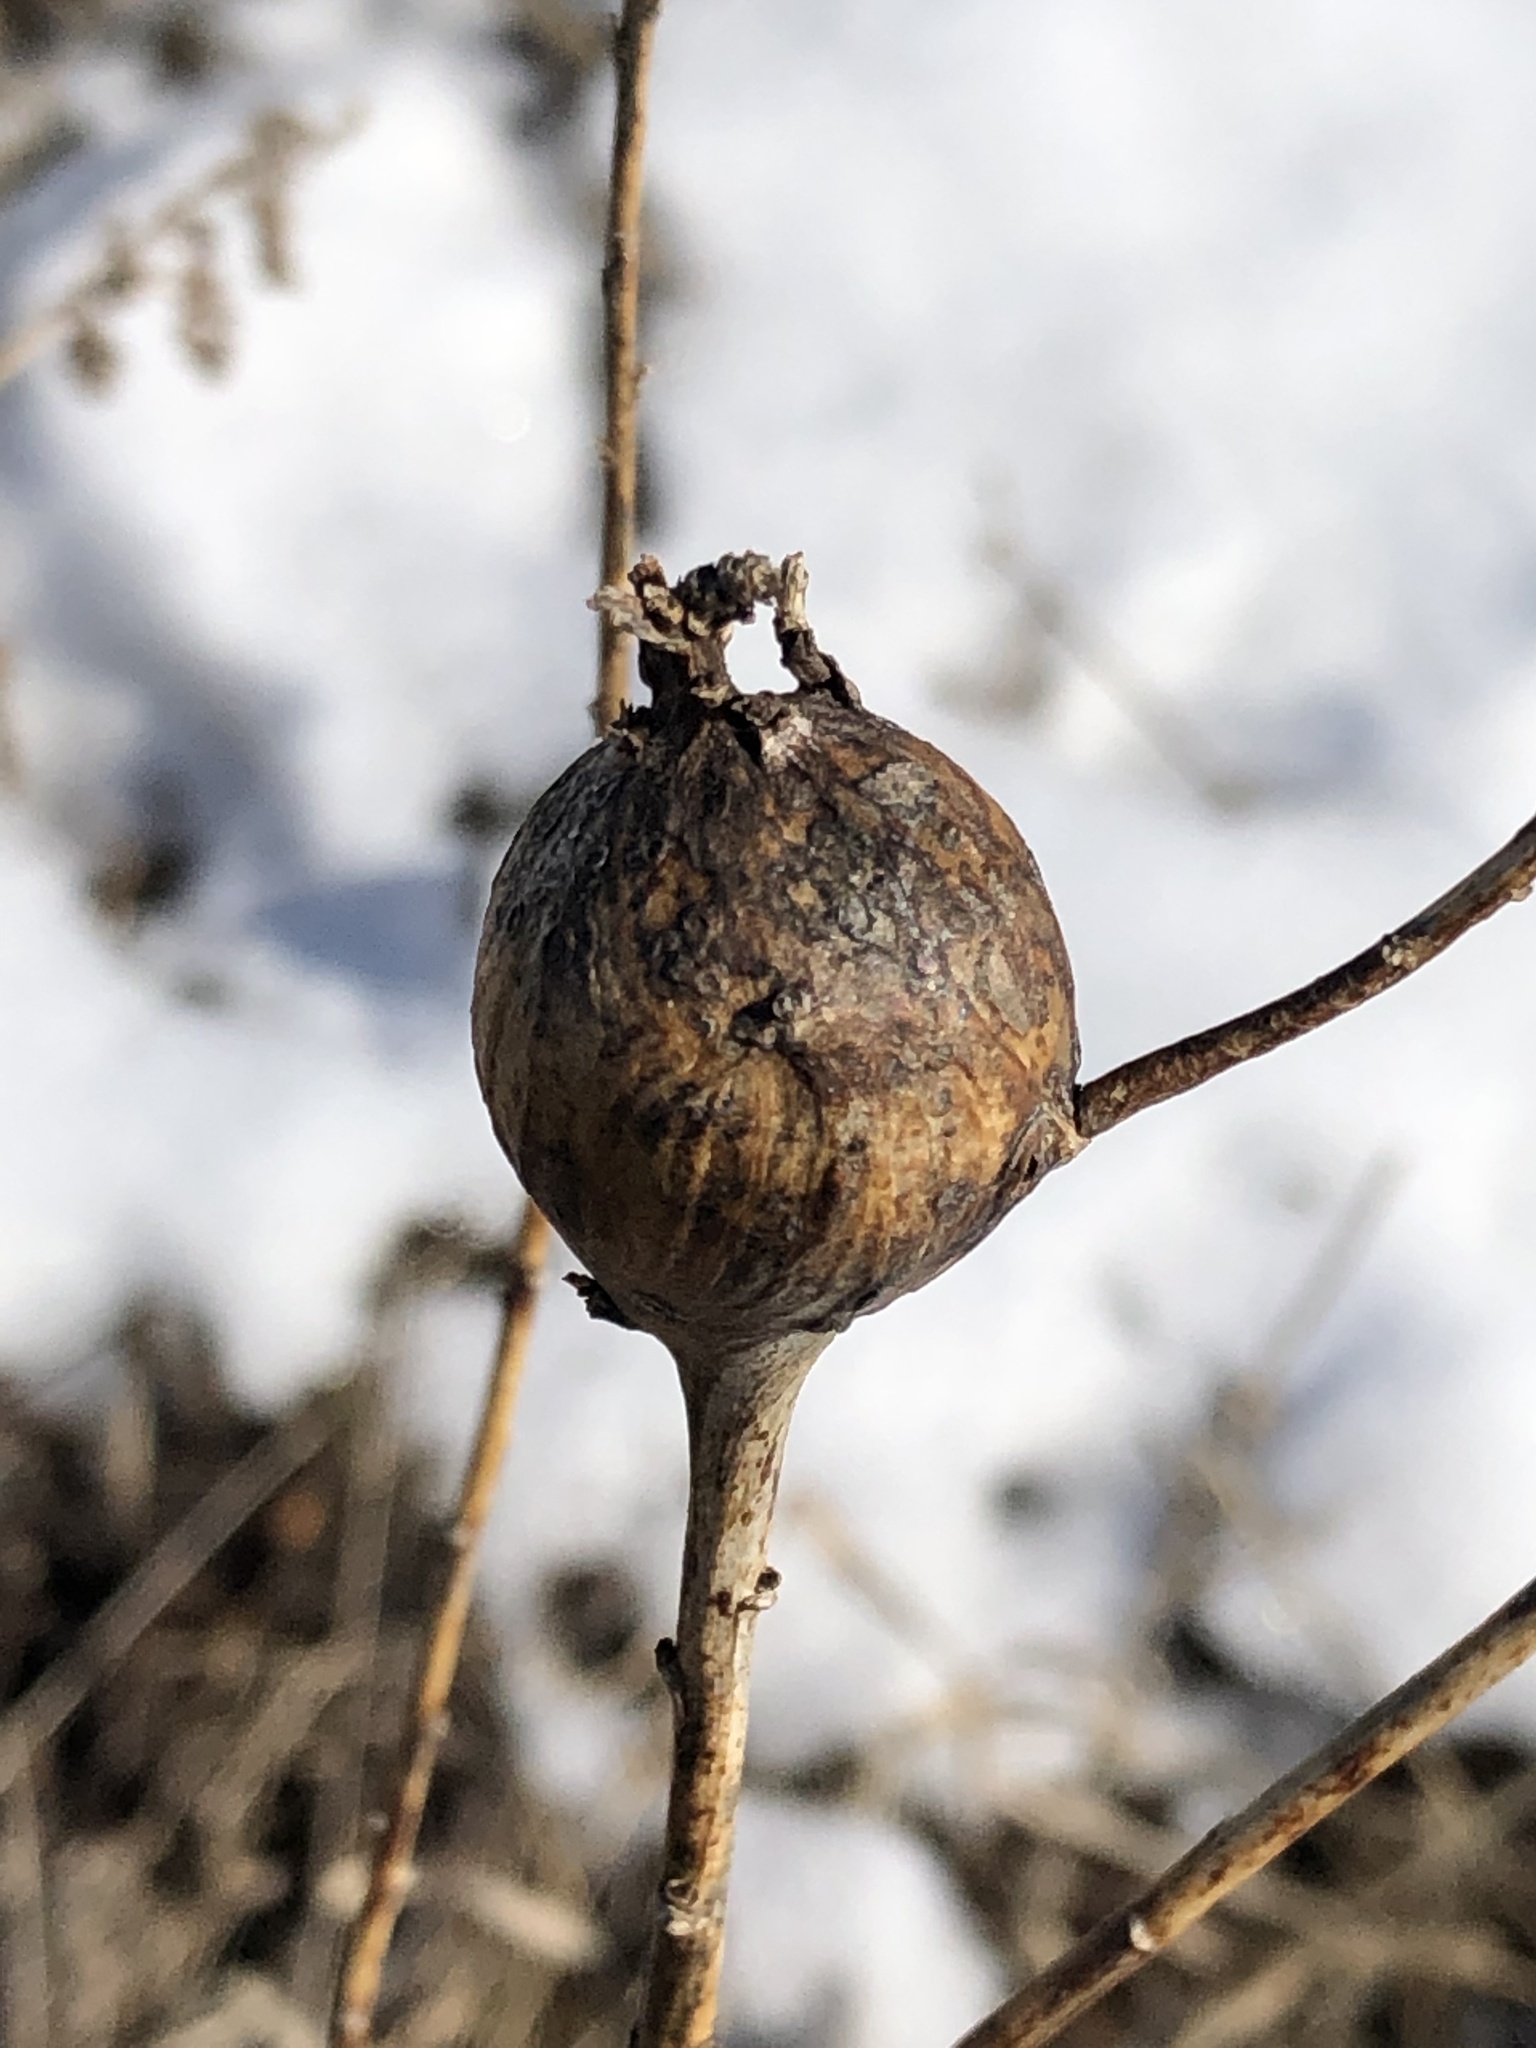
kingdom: Animalia
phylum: Arthropoda
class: Insecta
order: Diptera
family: Tephritidae
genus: Eurosta
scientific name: Eurosta solidaginis
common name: Goldenrod gall fly
